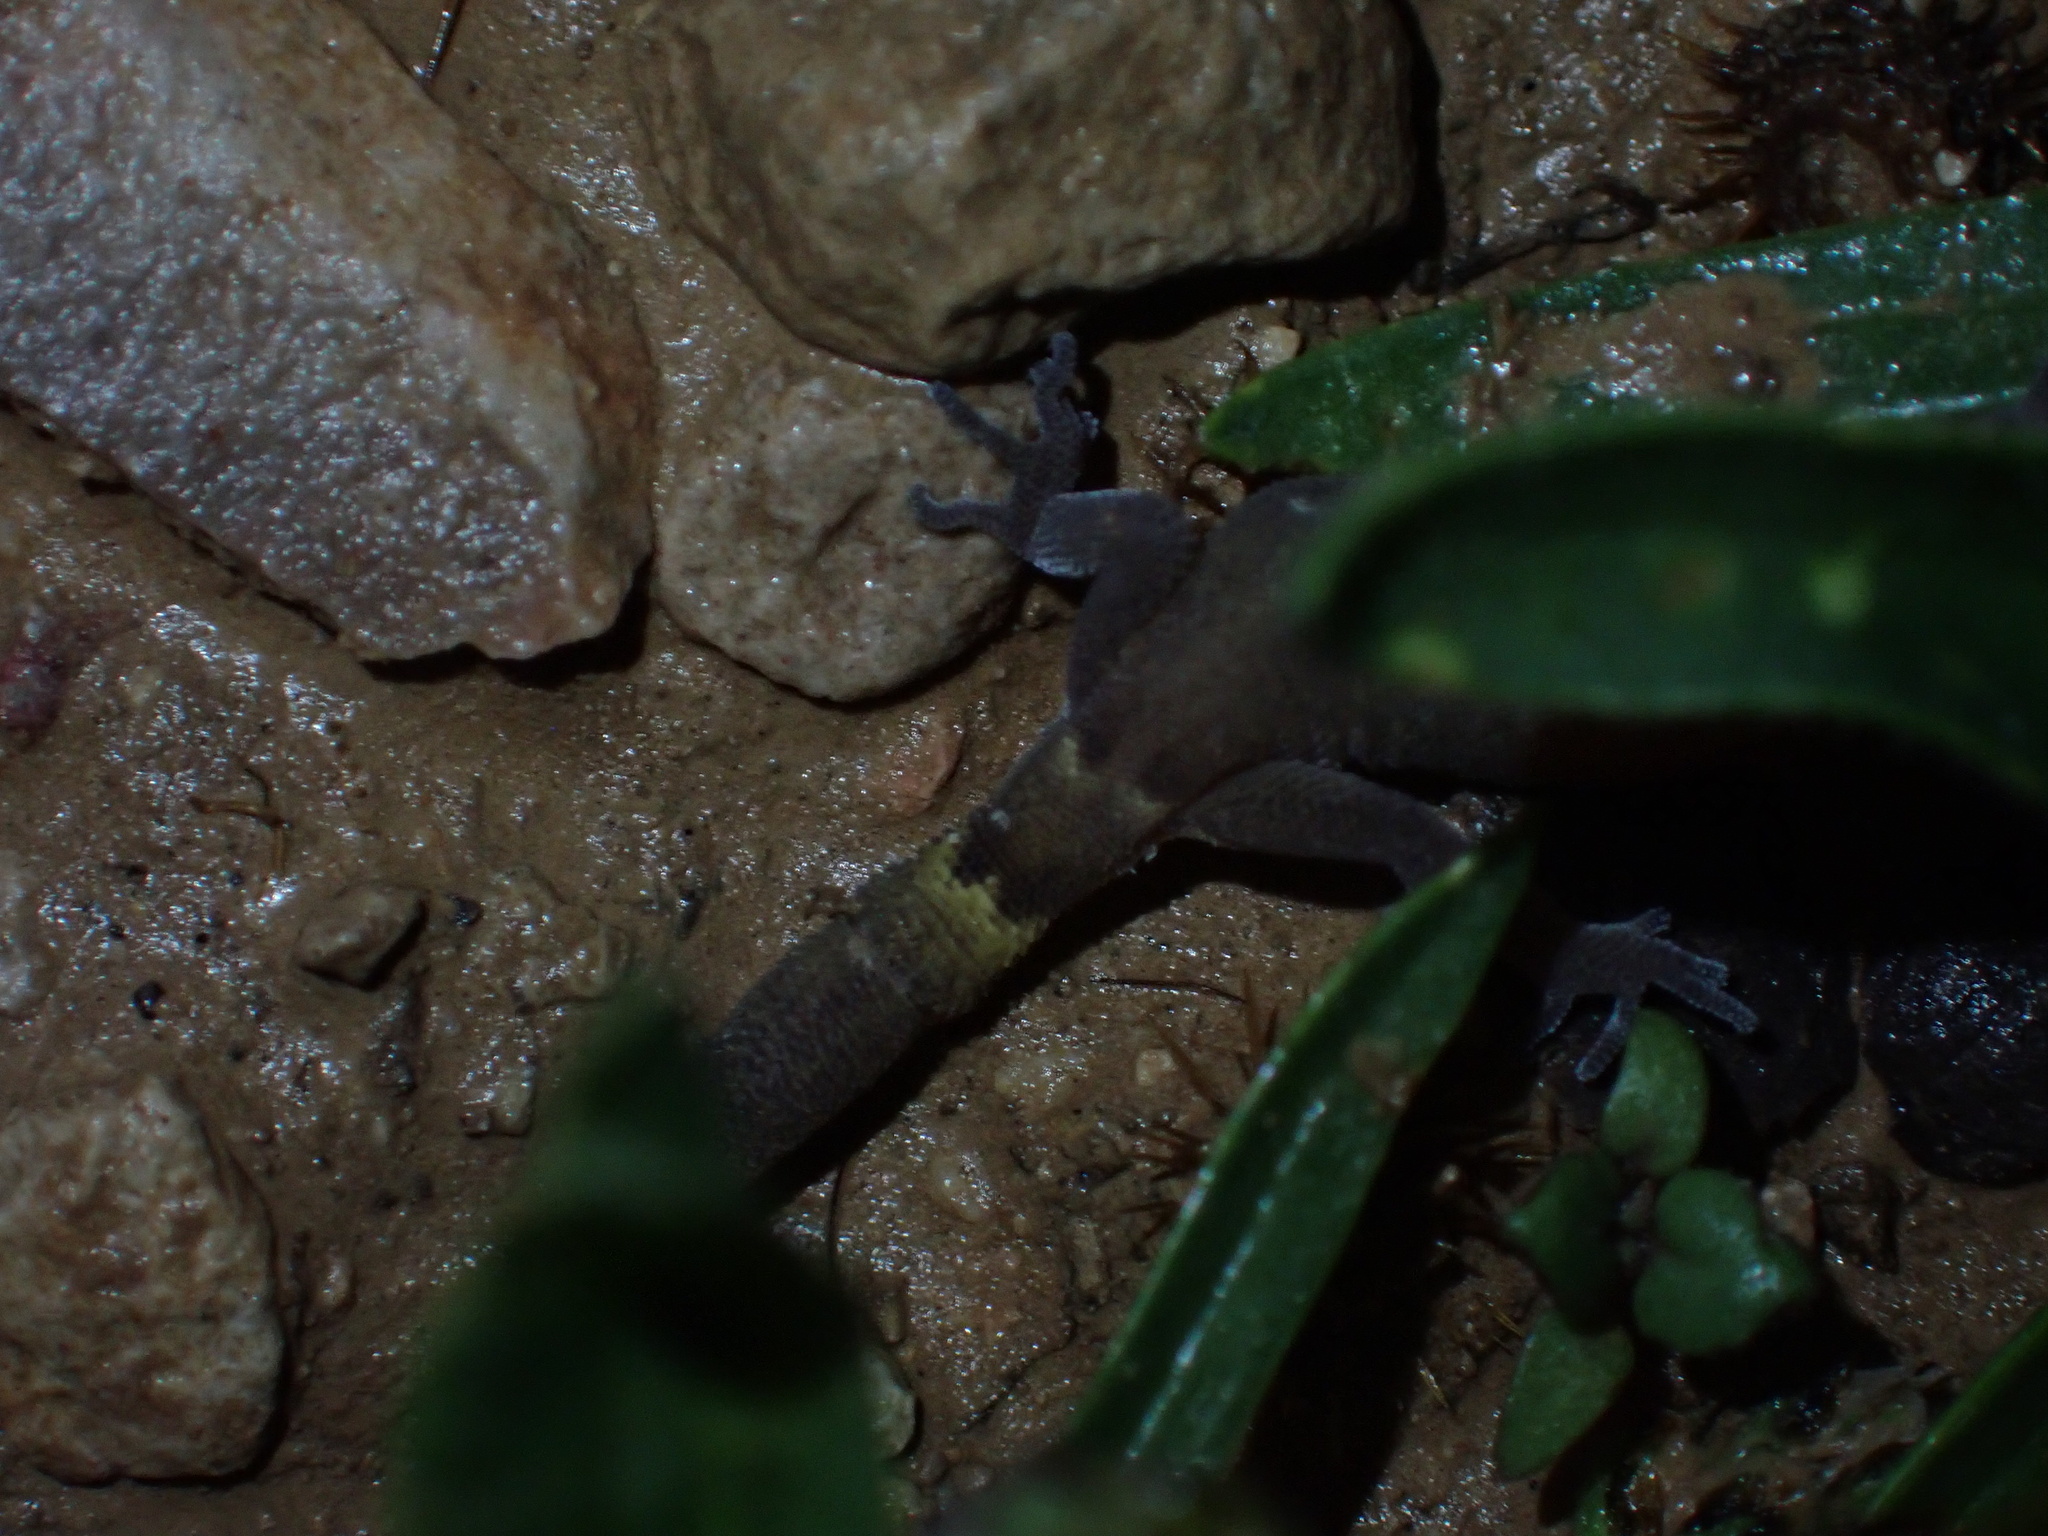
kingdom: Animalia
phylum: Chordata
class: Squamata
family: Gekkonidae
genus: Microgecko
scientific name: Microgecko helenae
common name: Banded dwarf gecko
